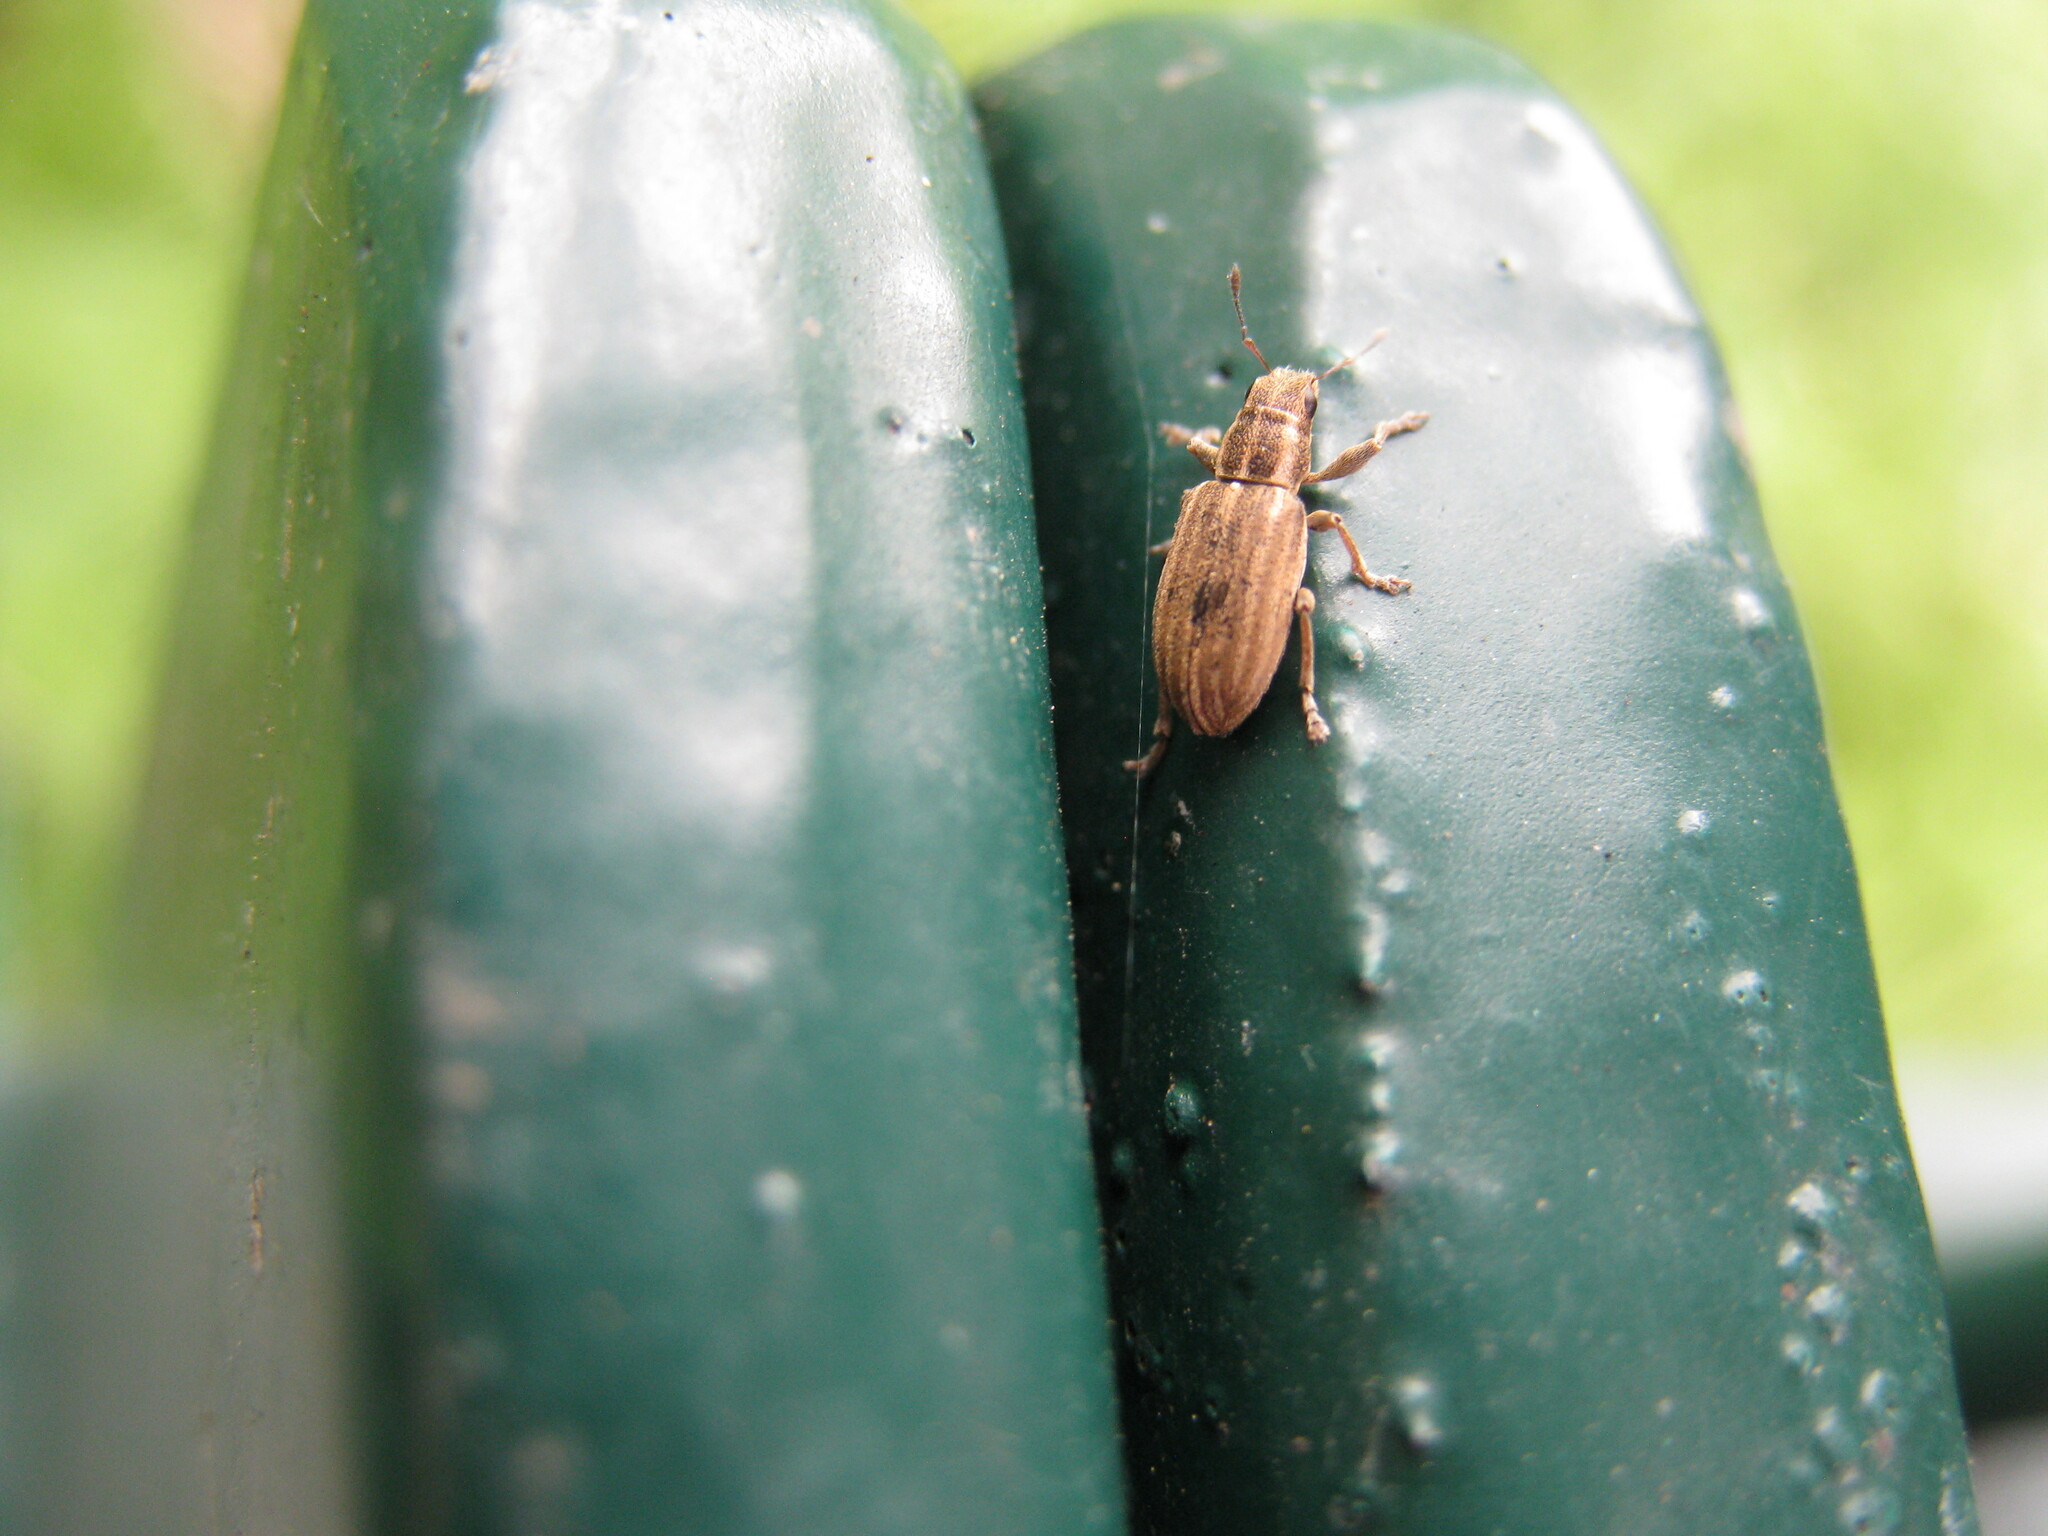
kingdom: Animalia
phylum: Arthropoda
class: Insecta
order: Coleoptera
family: Curculionidae
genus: Sitona
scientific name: Sitona lineatus
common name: Weevil
